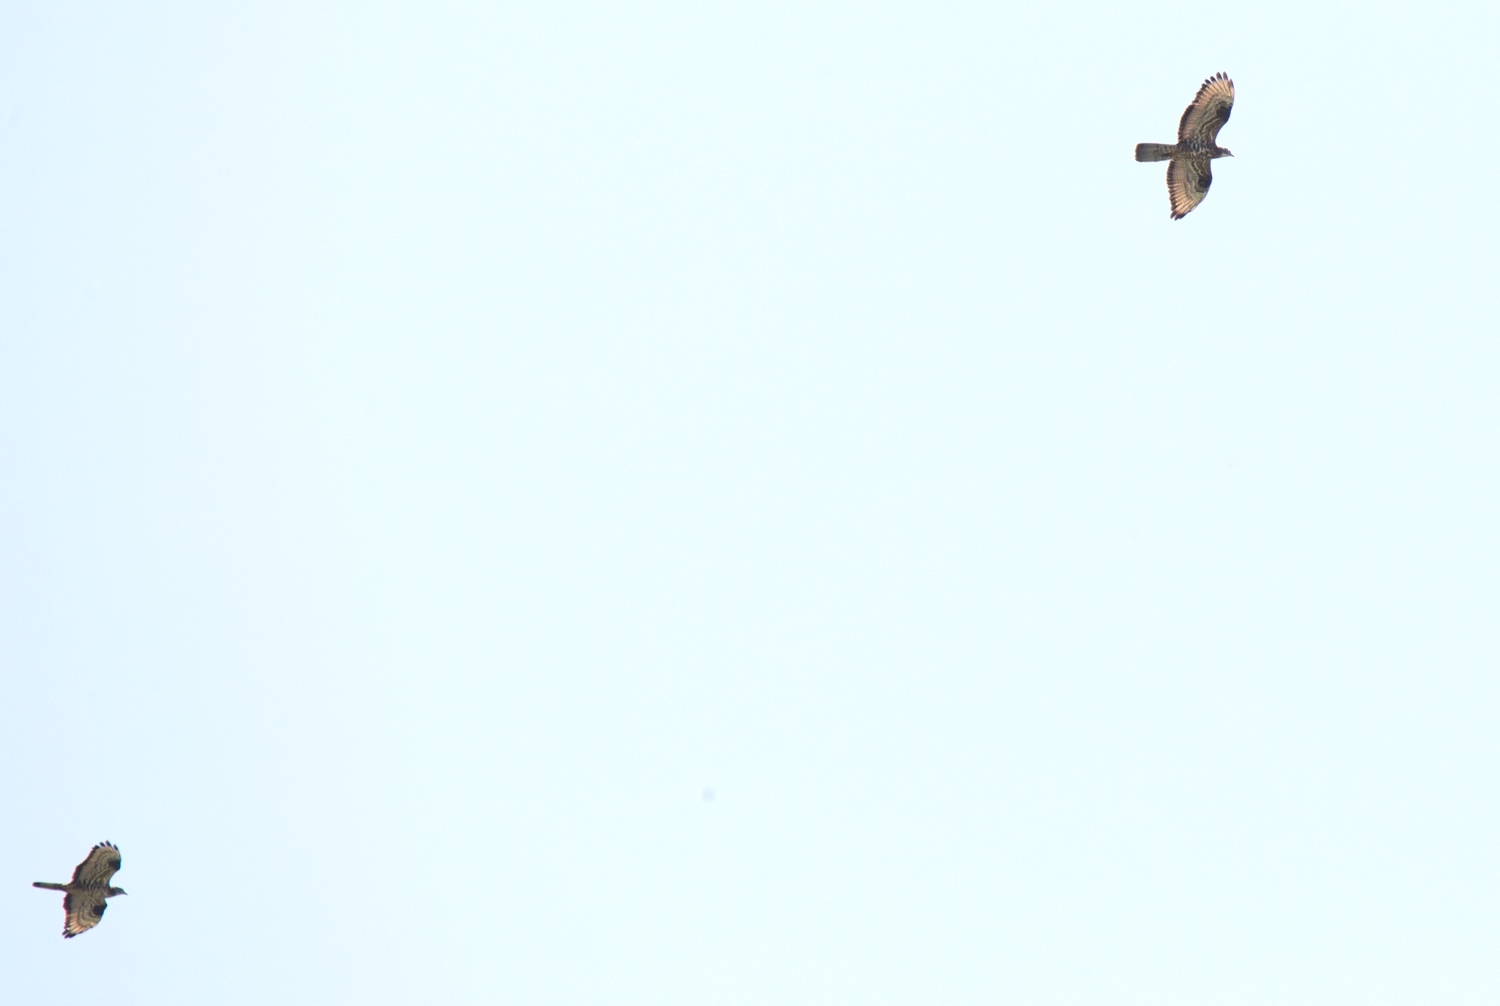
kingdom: Animalia
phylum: Chordata
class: Aves
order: Accipitriformes
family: Accipitridae
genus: Pernis
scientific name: Pernis apivorus
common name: European honey buzzard
